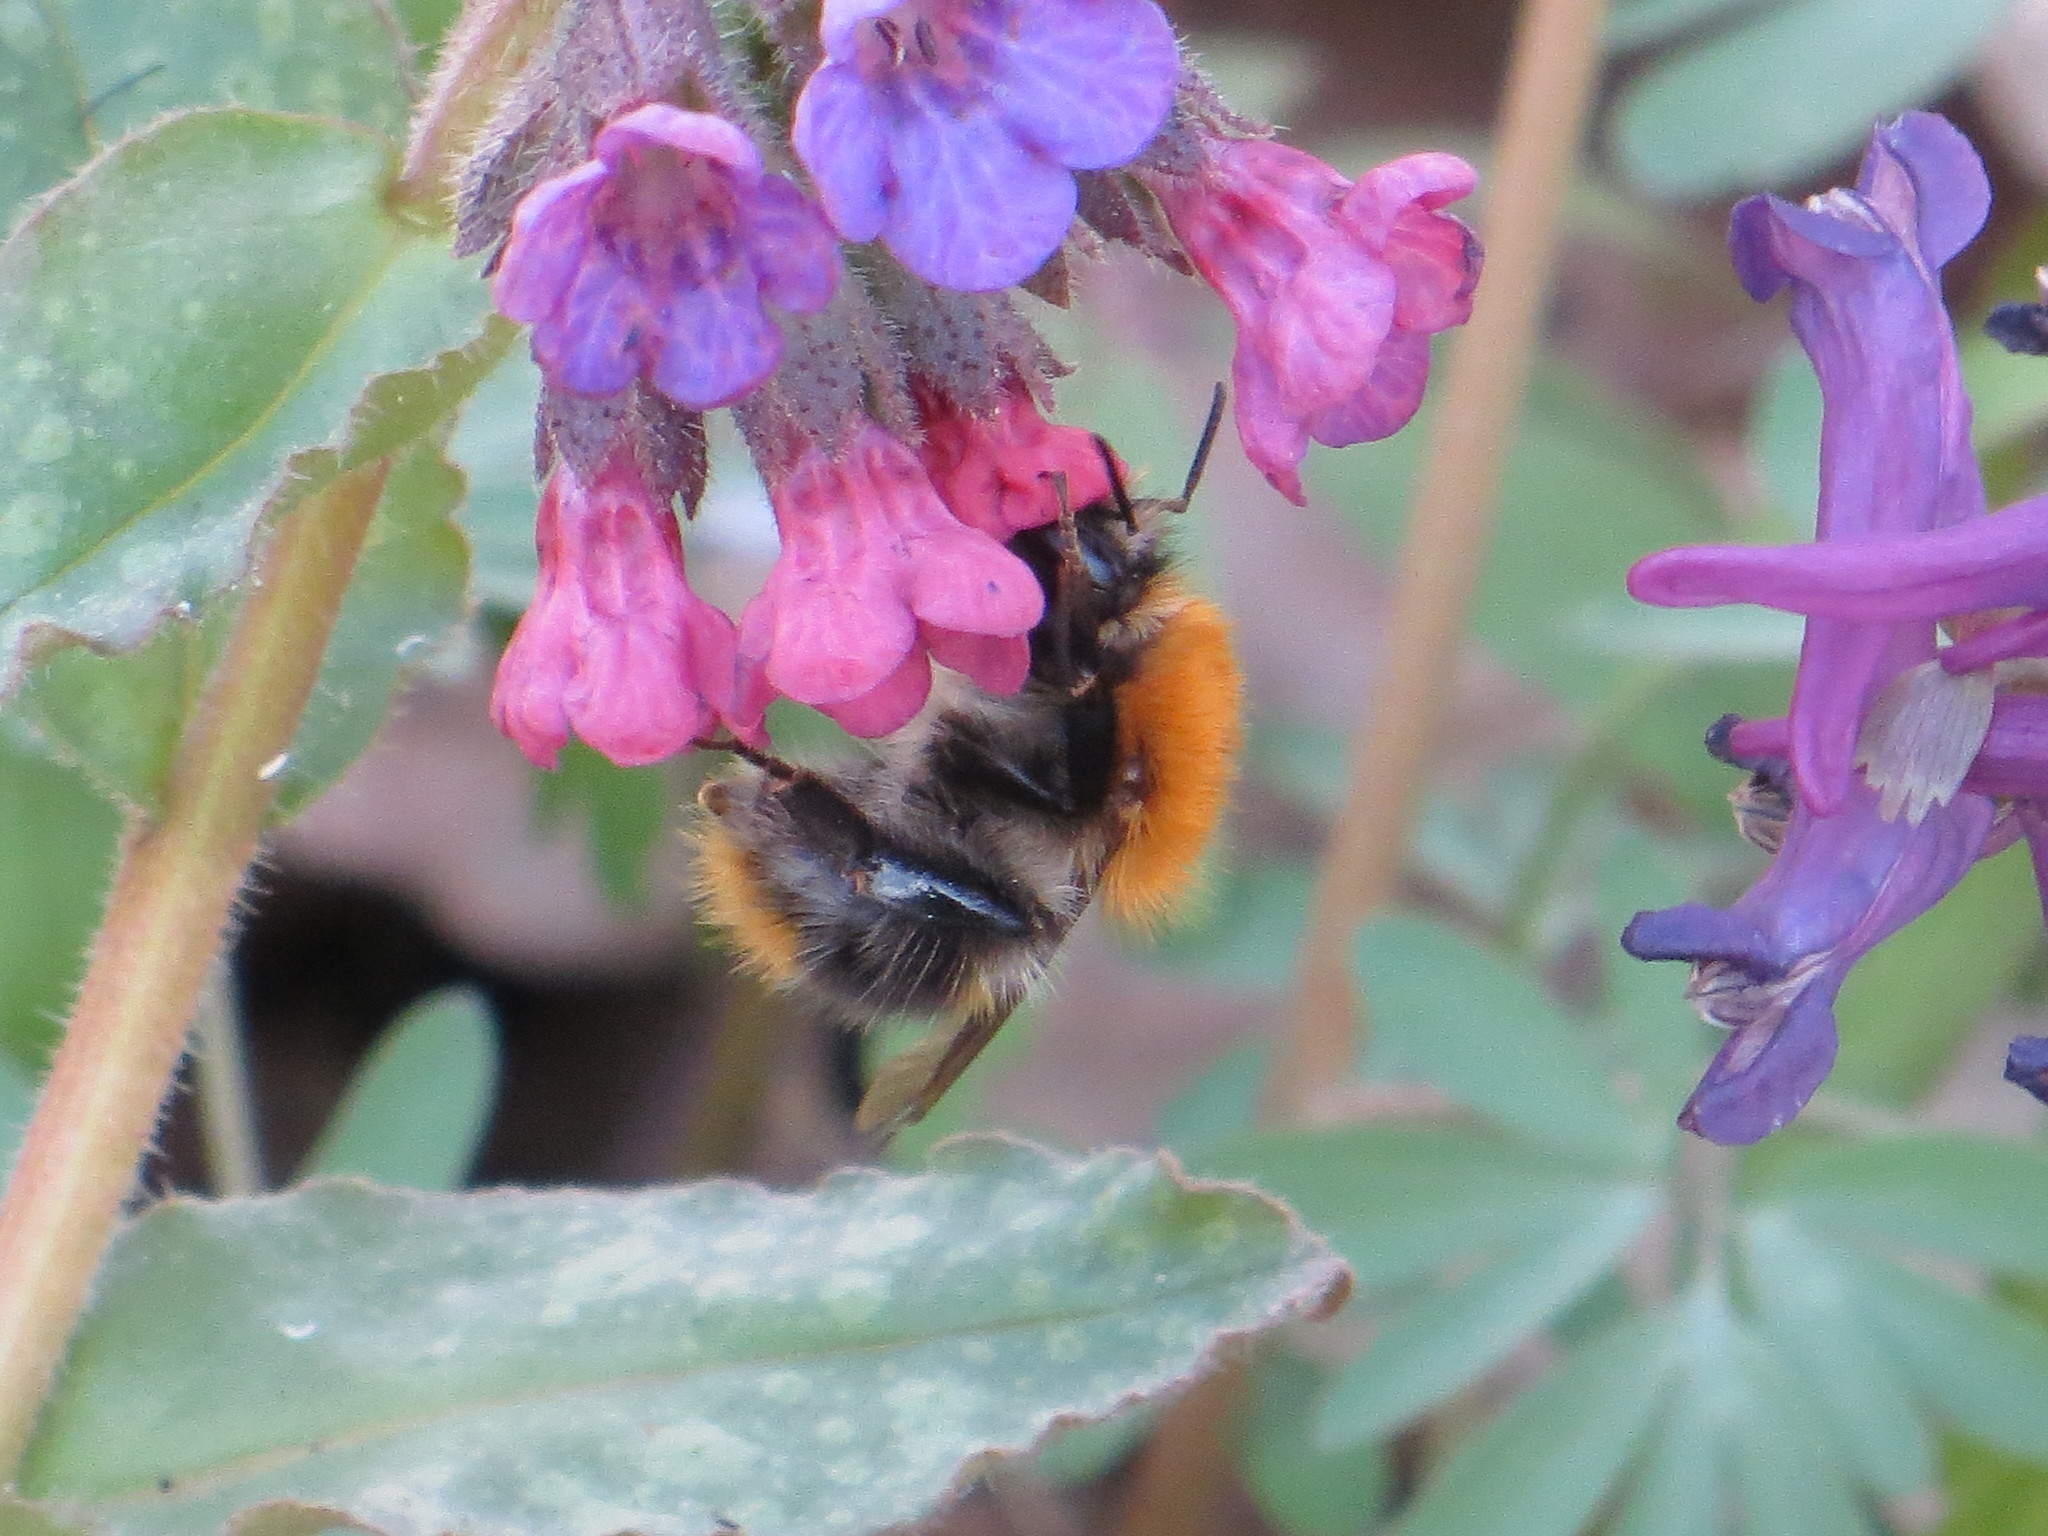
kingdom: Animalia
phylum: Arthropoda
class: Insecta
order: Hymenoptera
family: Apidae
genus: Bombus
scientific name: Bombus pascuorum
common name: Common carder bee
